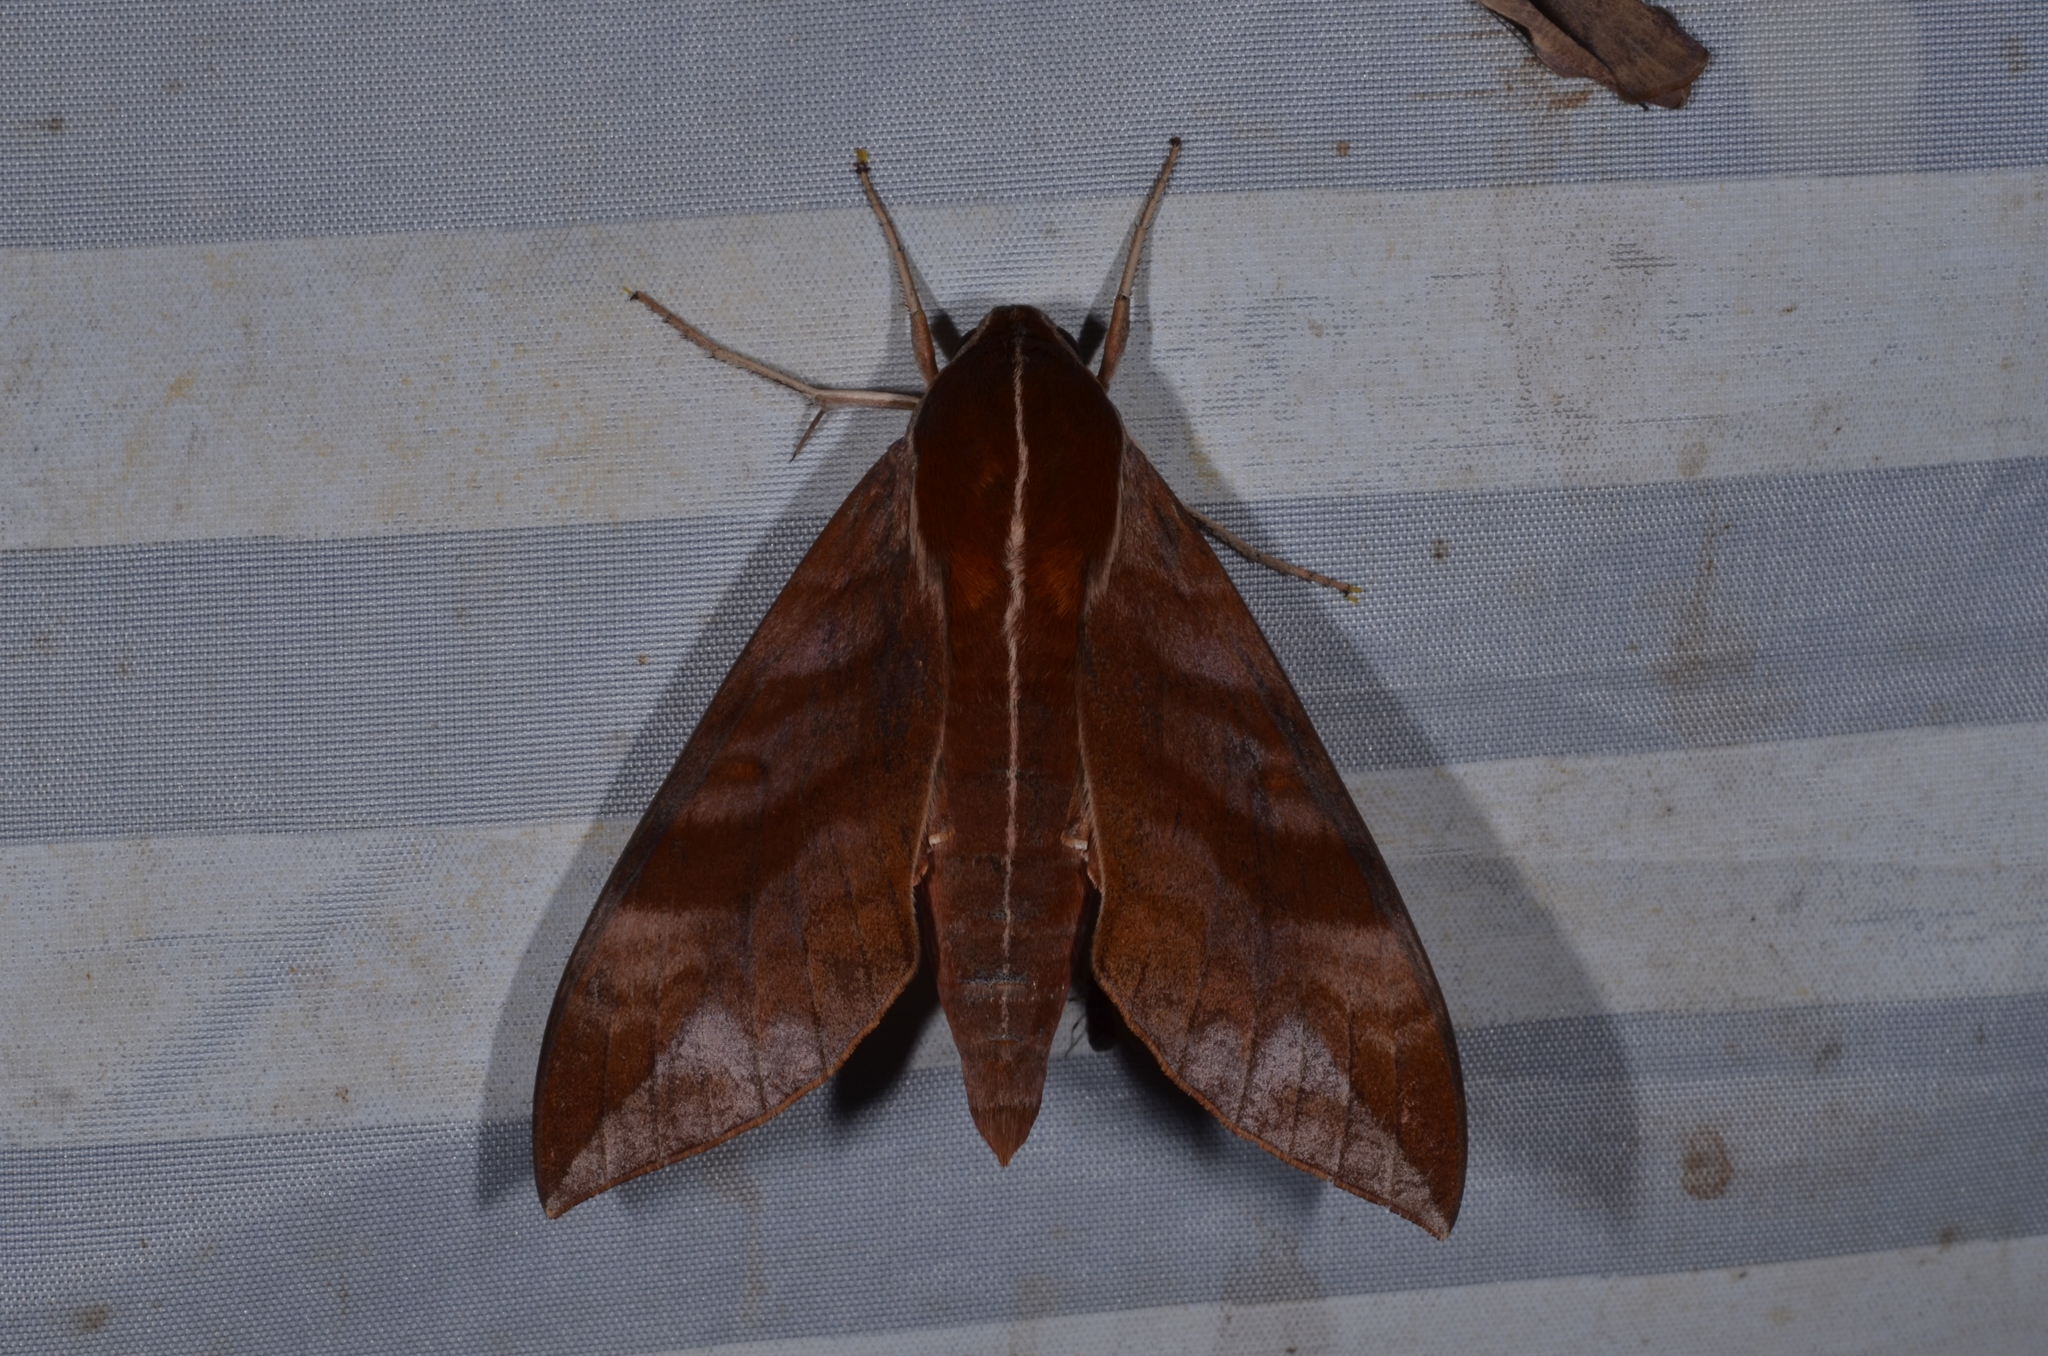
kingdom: Animalia
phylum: Arthropoda
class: Insecta
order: Lepidoptera
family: Sphingidae
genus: Ampelophaga
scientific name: Ampelophaga rubiginosa
